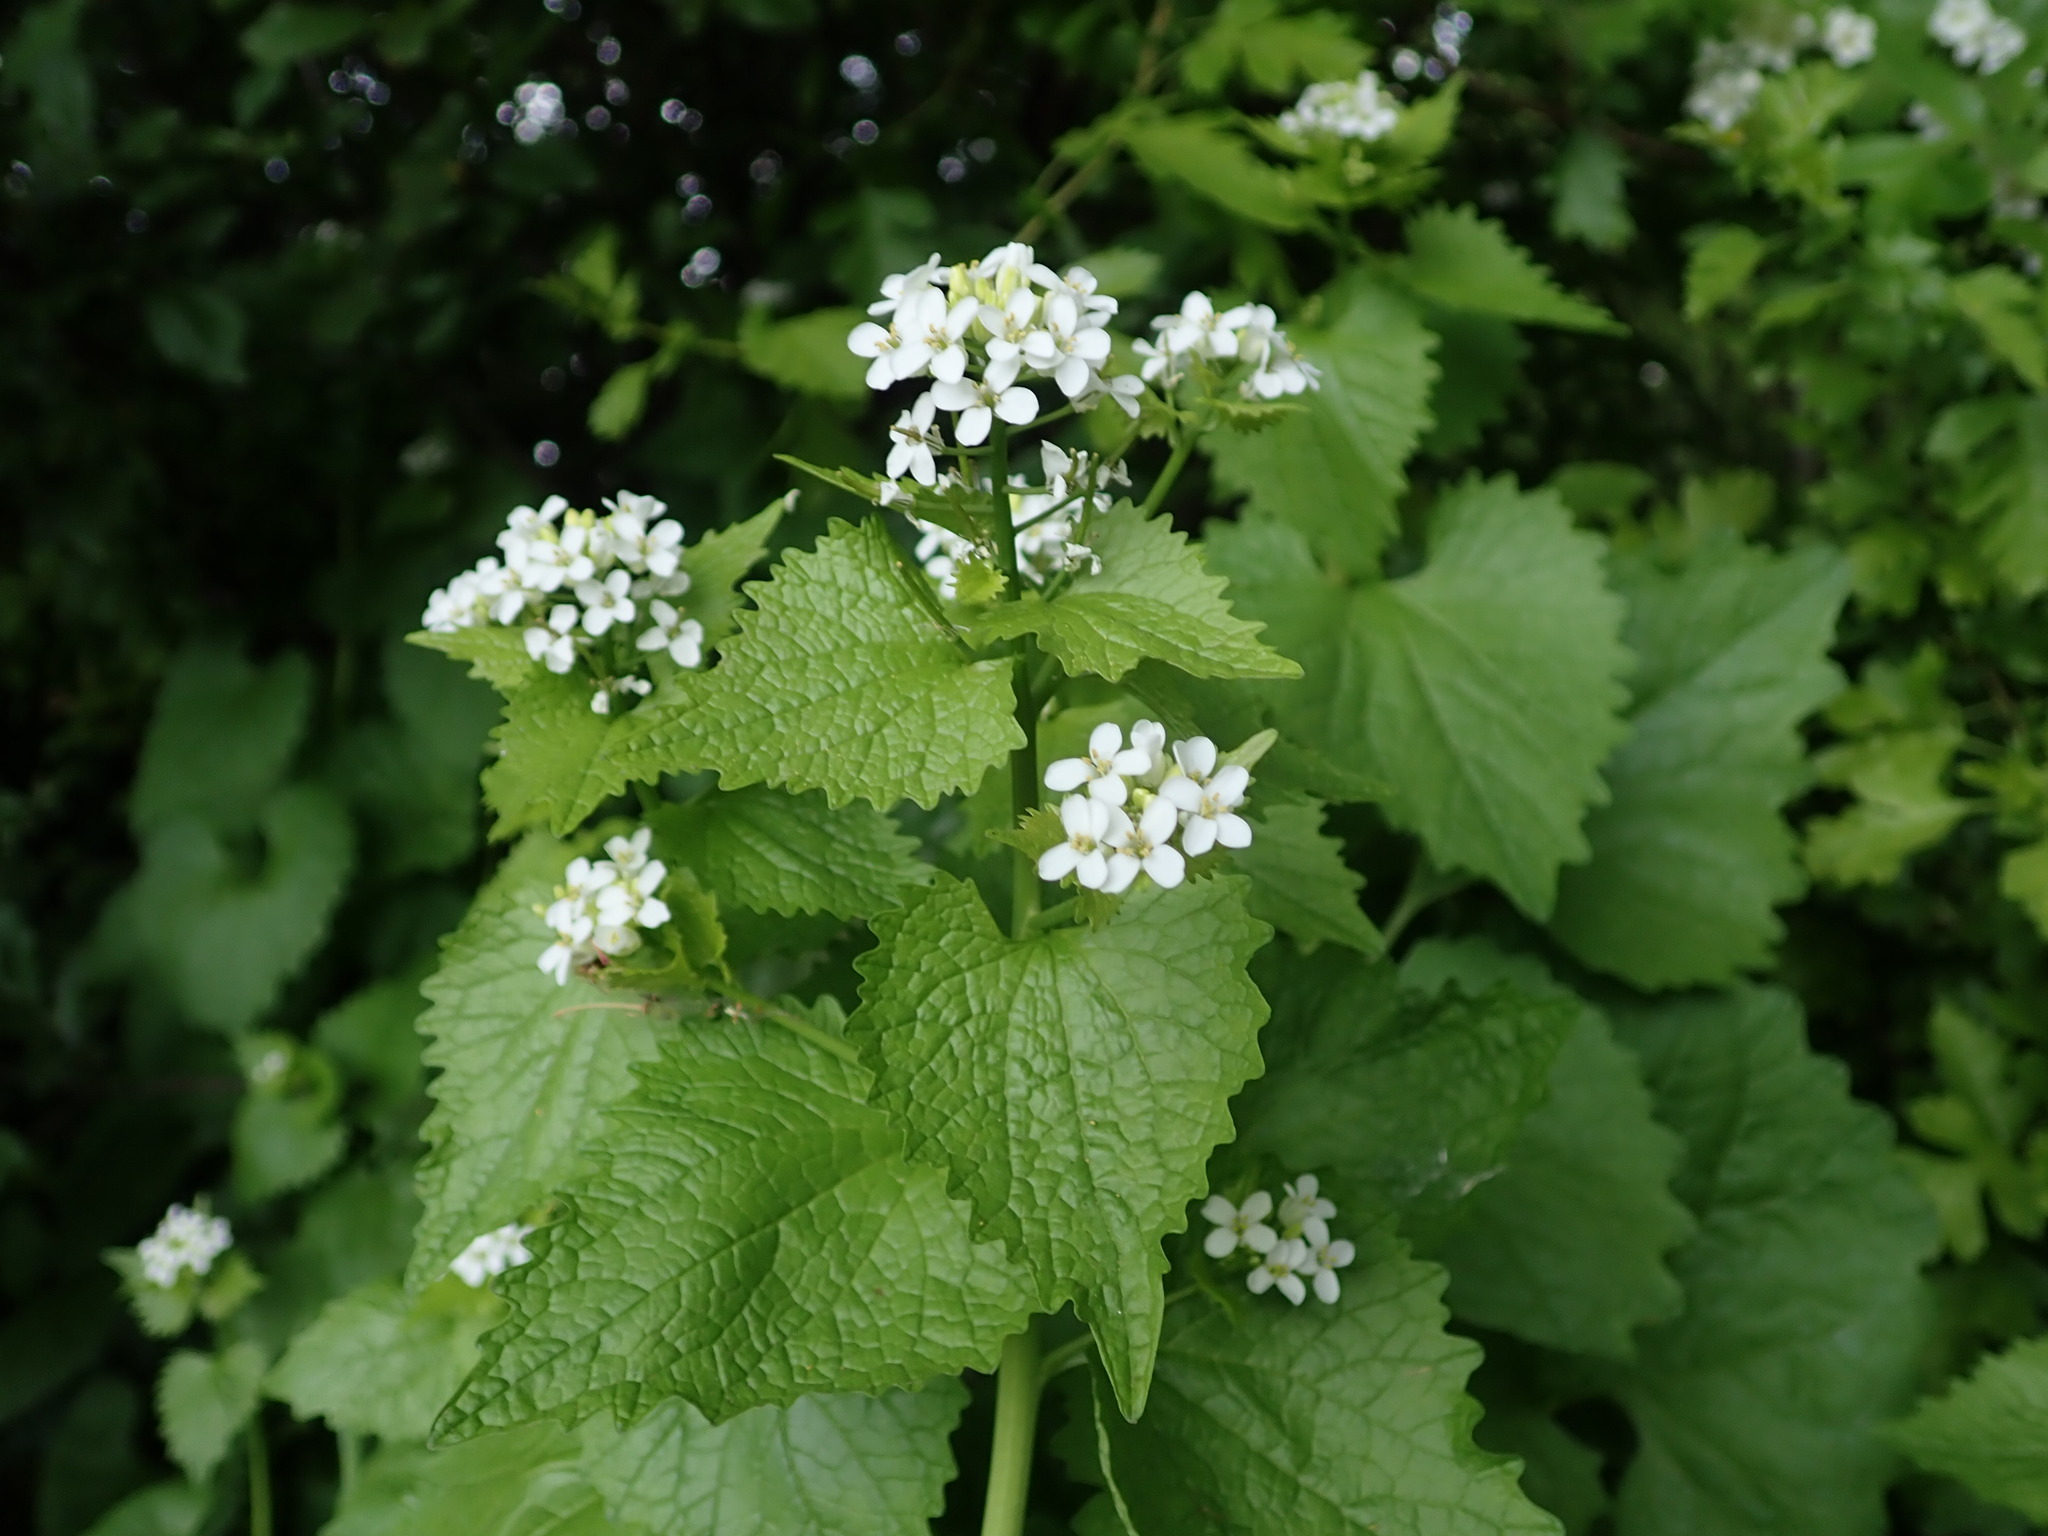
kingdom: Plantae
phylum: Tracheophyta
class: Magnoliopsida
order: Brassicales
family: Brassicaceae
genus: Alliaria
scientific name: Alliaria petiolata
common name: Garlic mustard
